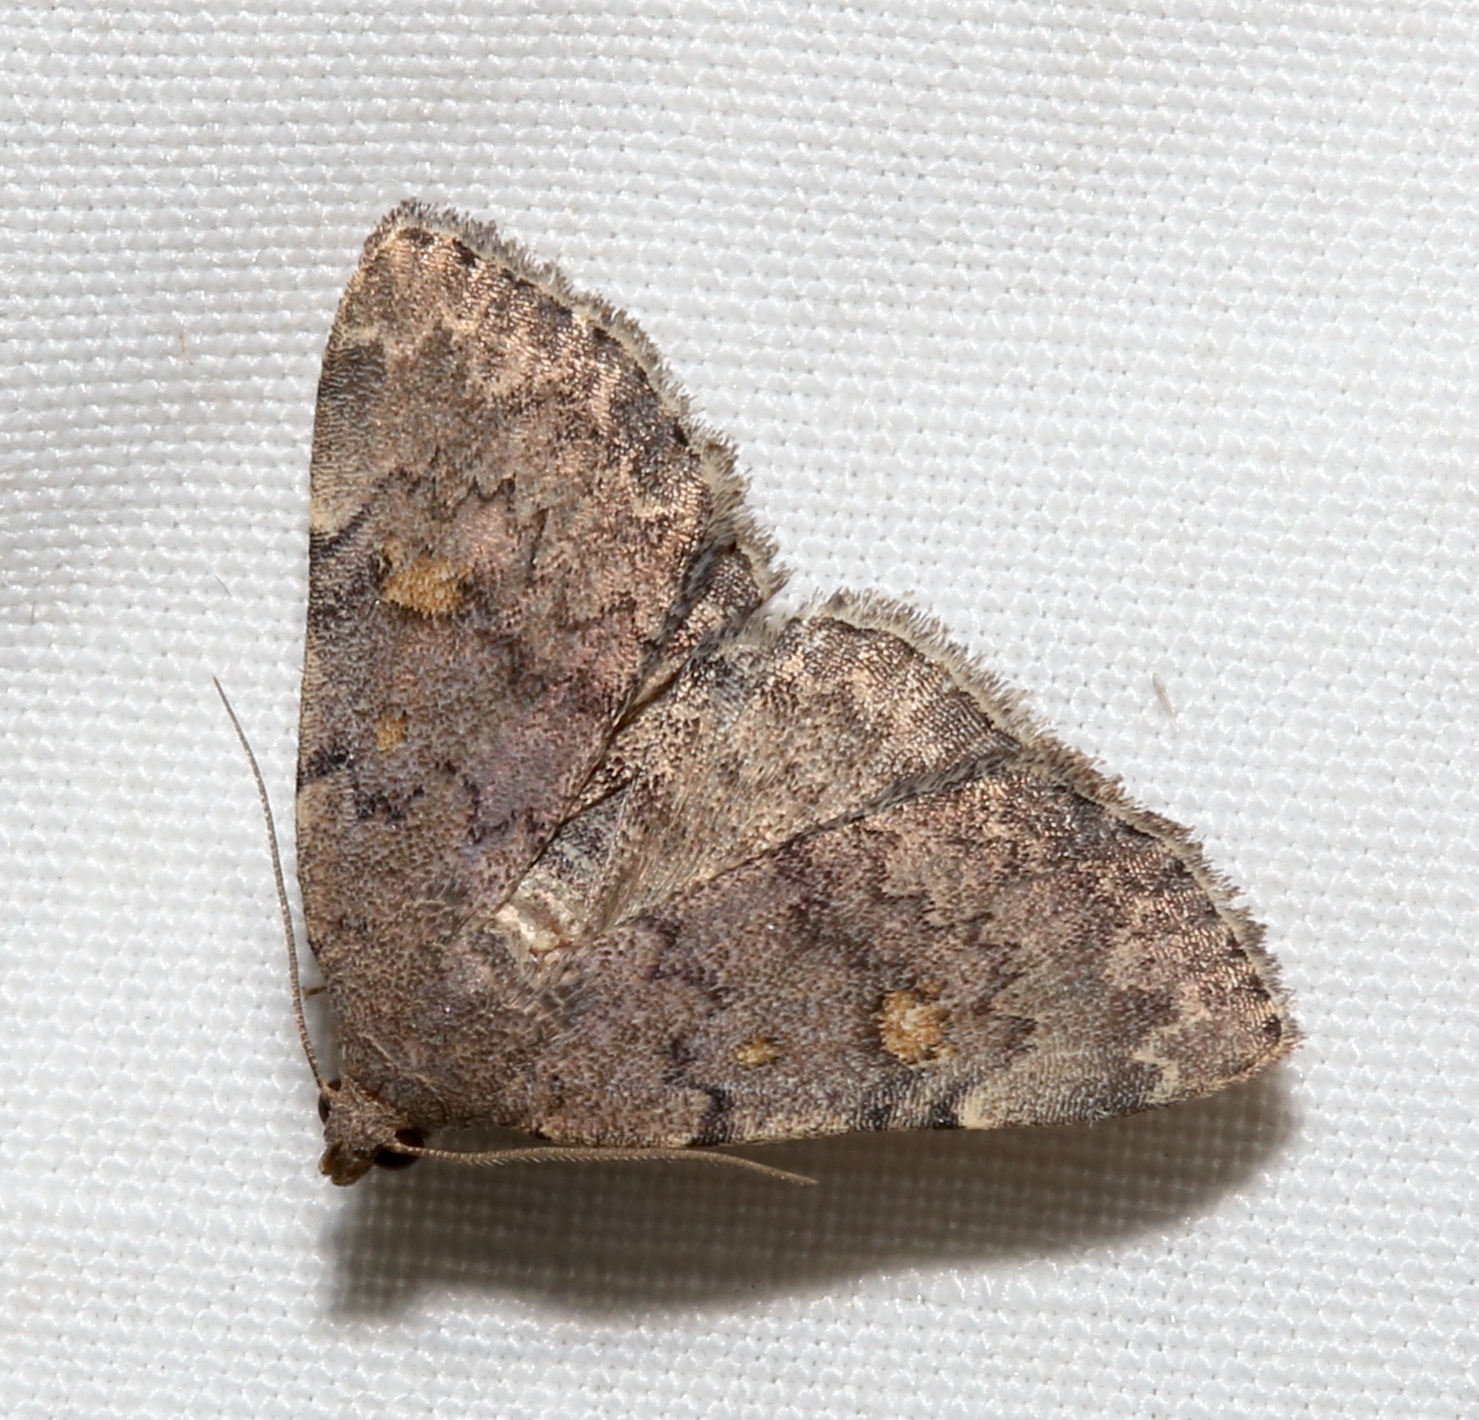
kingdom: Animalia
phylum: Arthropoda
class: Insecta
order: Lepidoptera
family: Erebidae
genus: Idia
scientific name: Idia aemula
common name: Common idia moth
